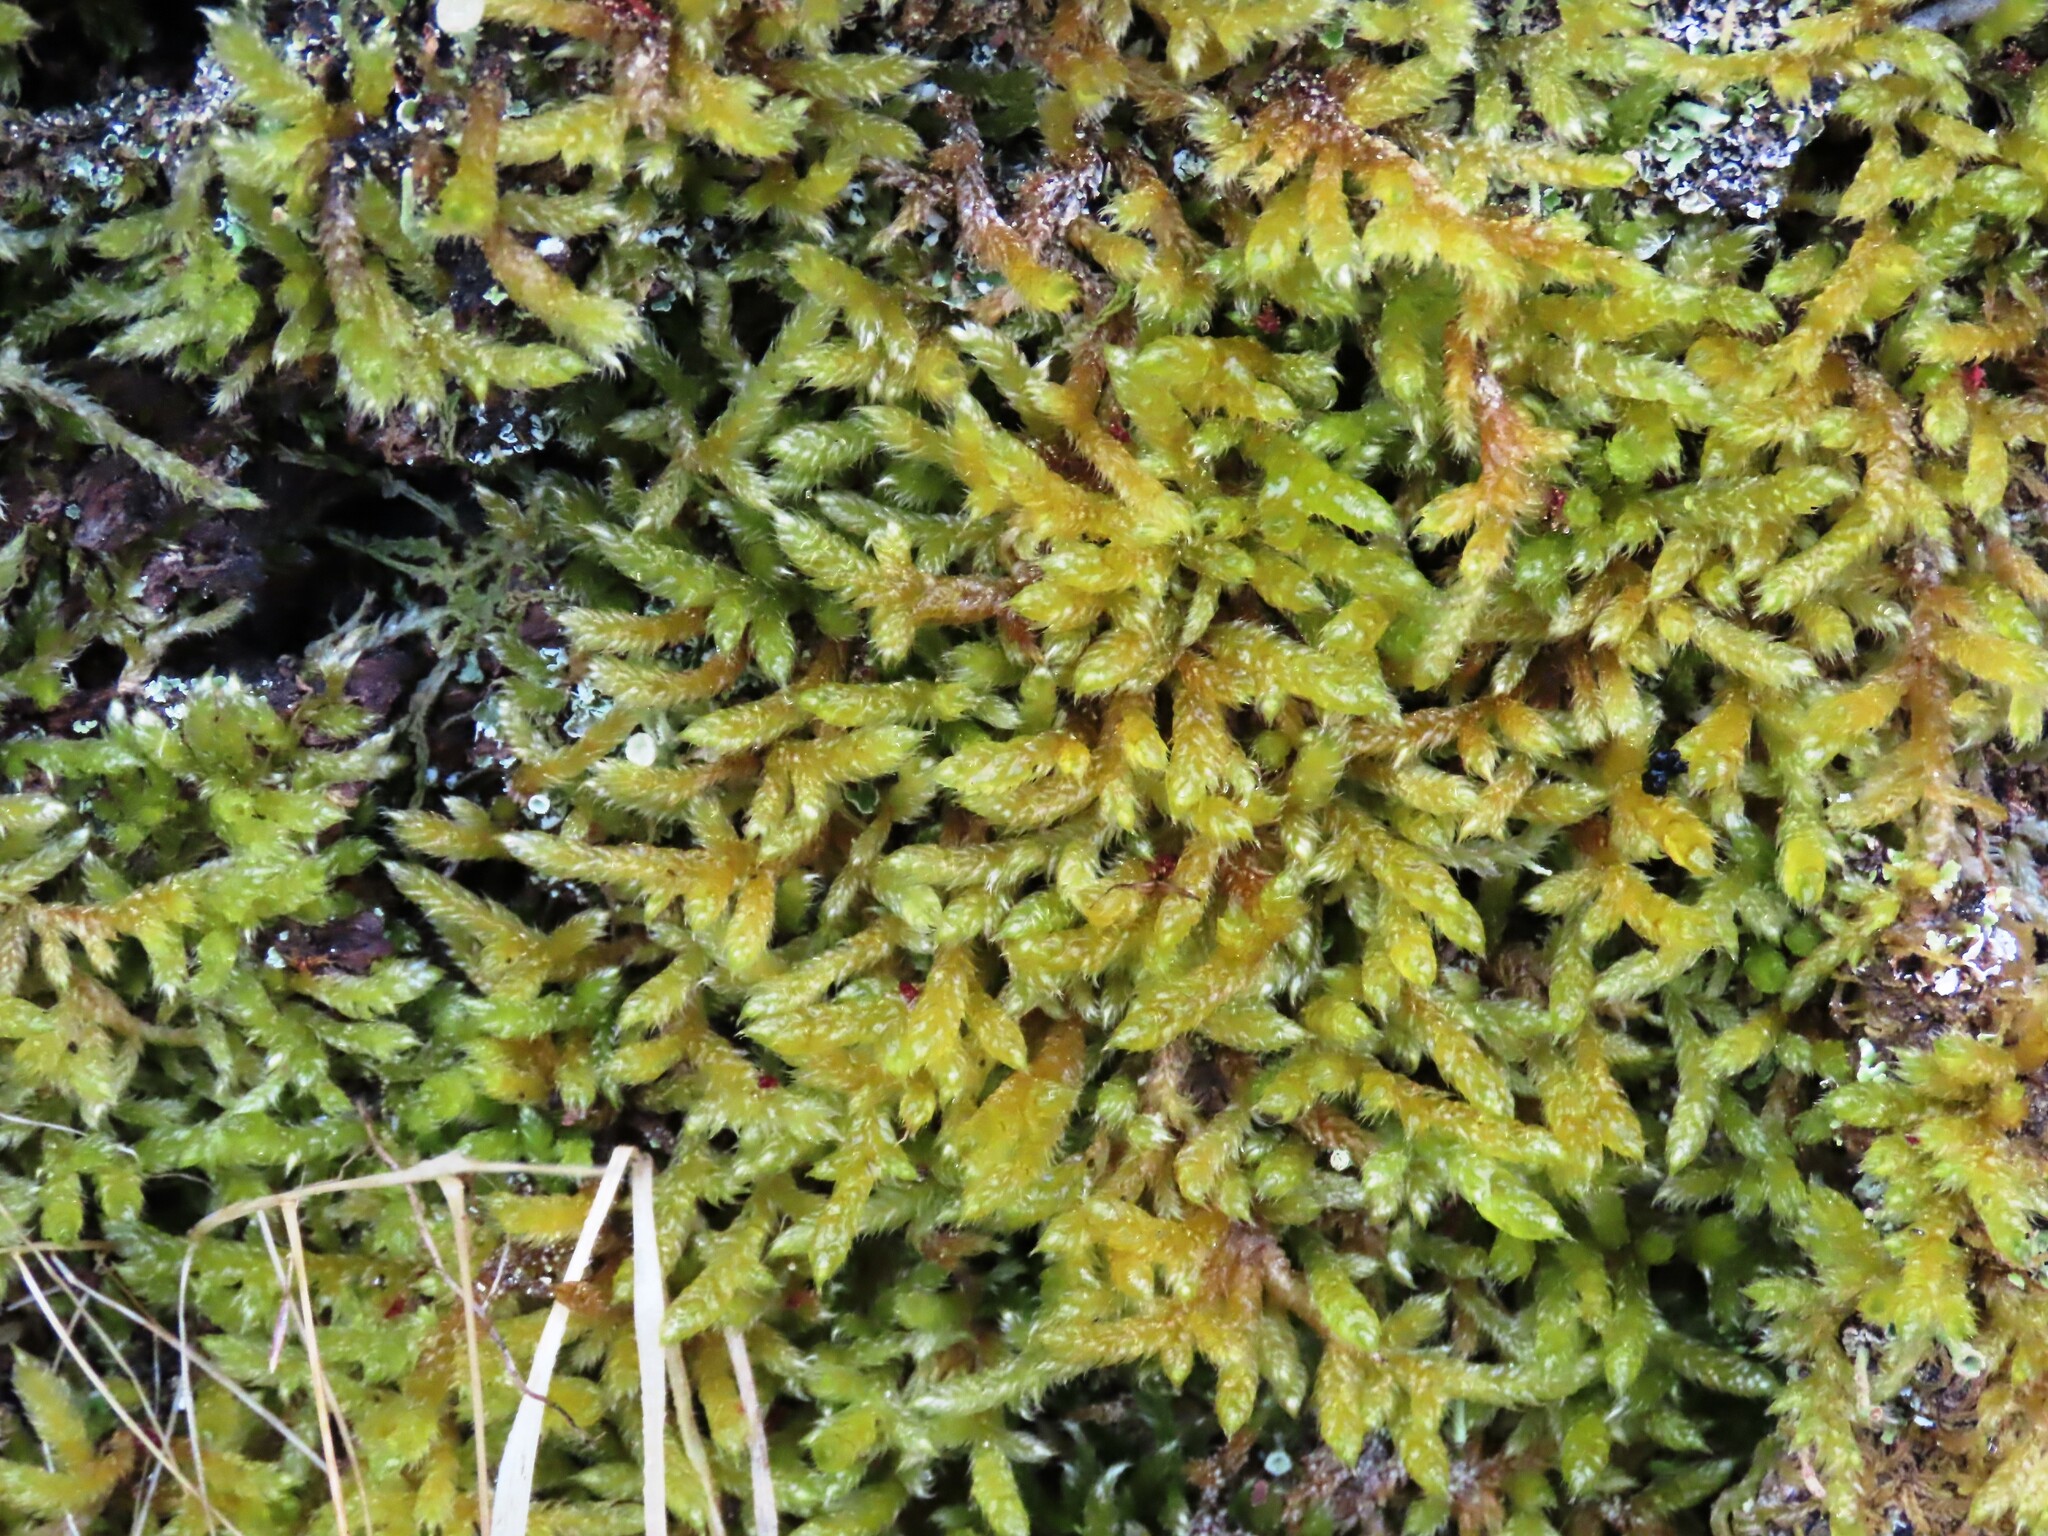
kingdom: Plantae
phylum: Bryophyta
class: Bryopsida
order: Hypnales
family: Hypnaceae
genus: Hypnum
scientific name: Hypnum cupressiforme
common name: Cypress-leaved plait-moss
